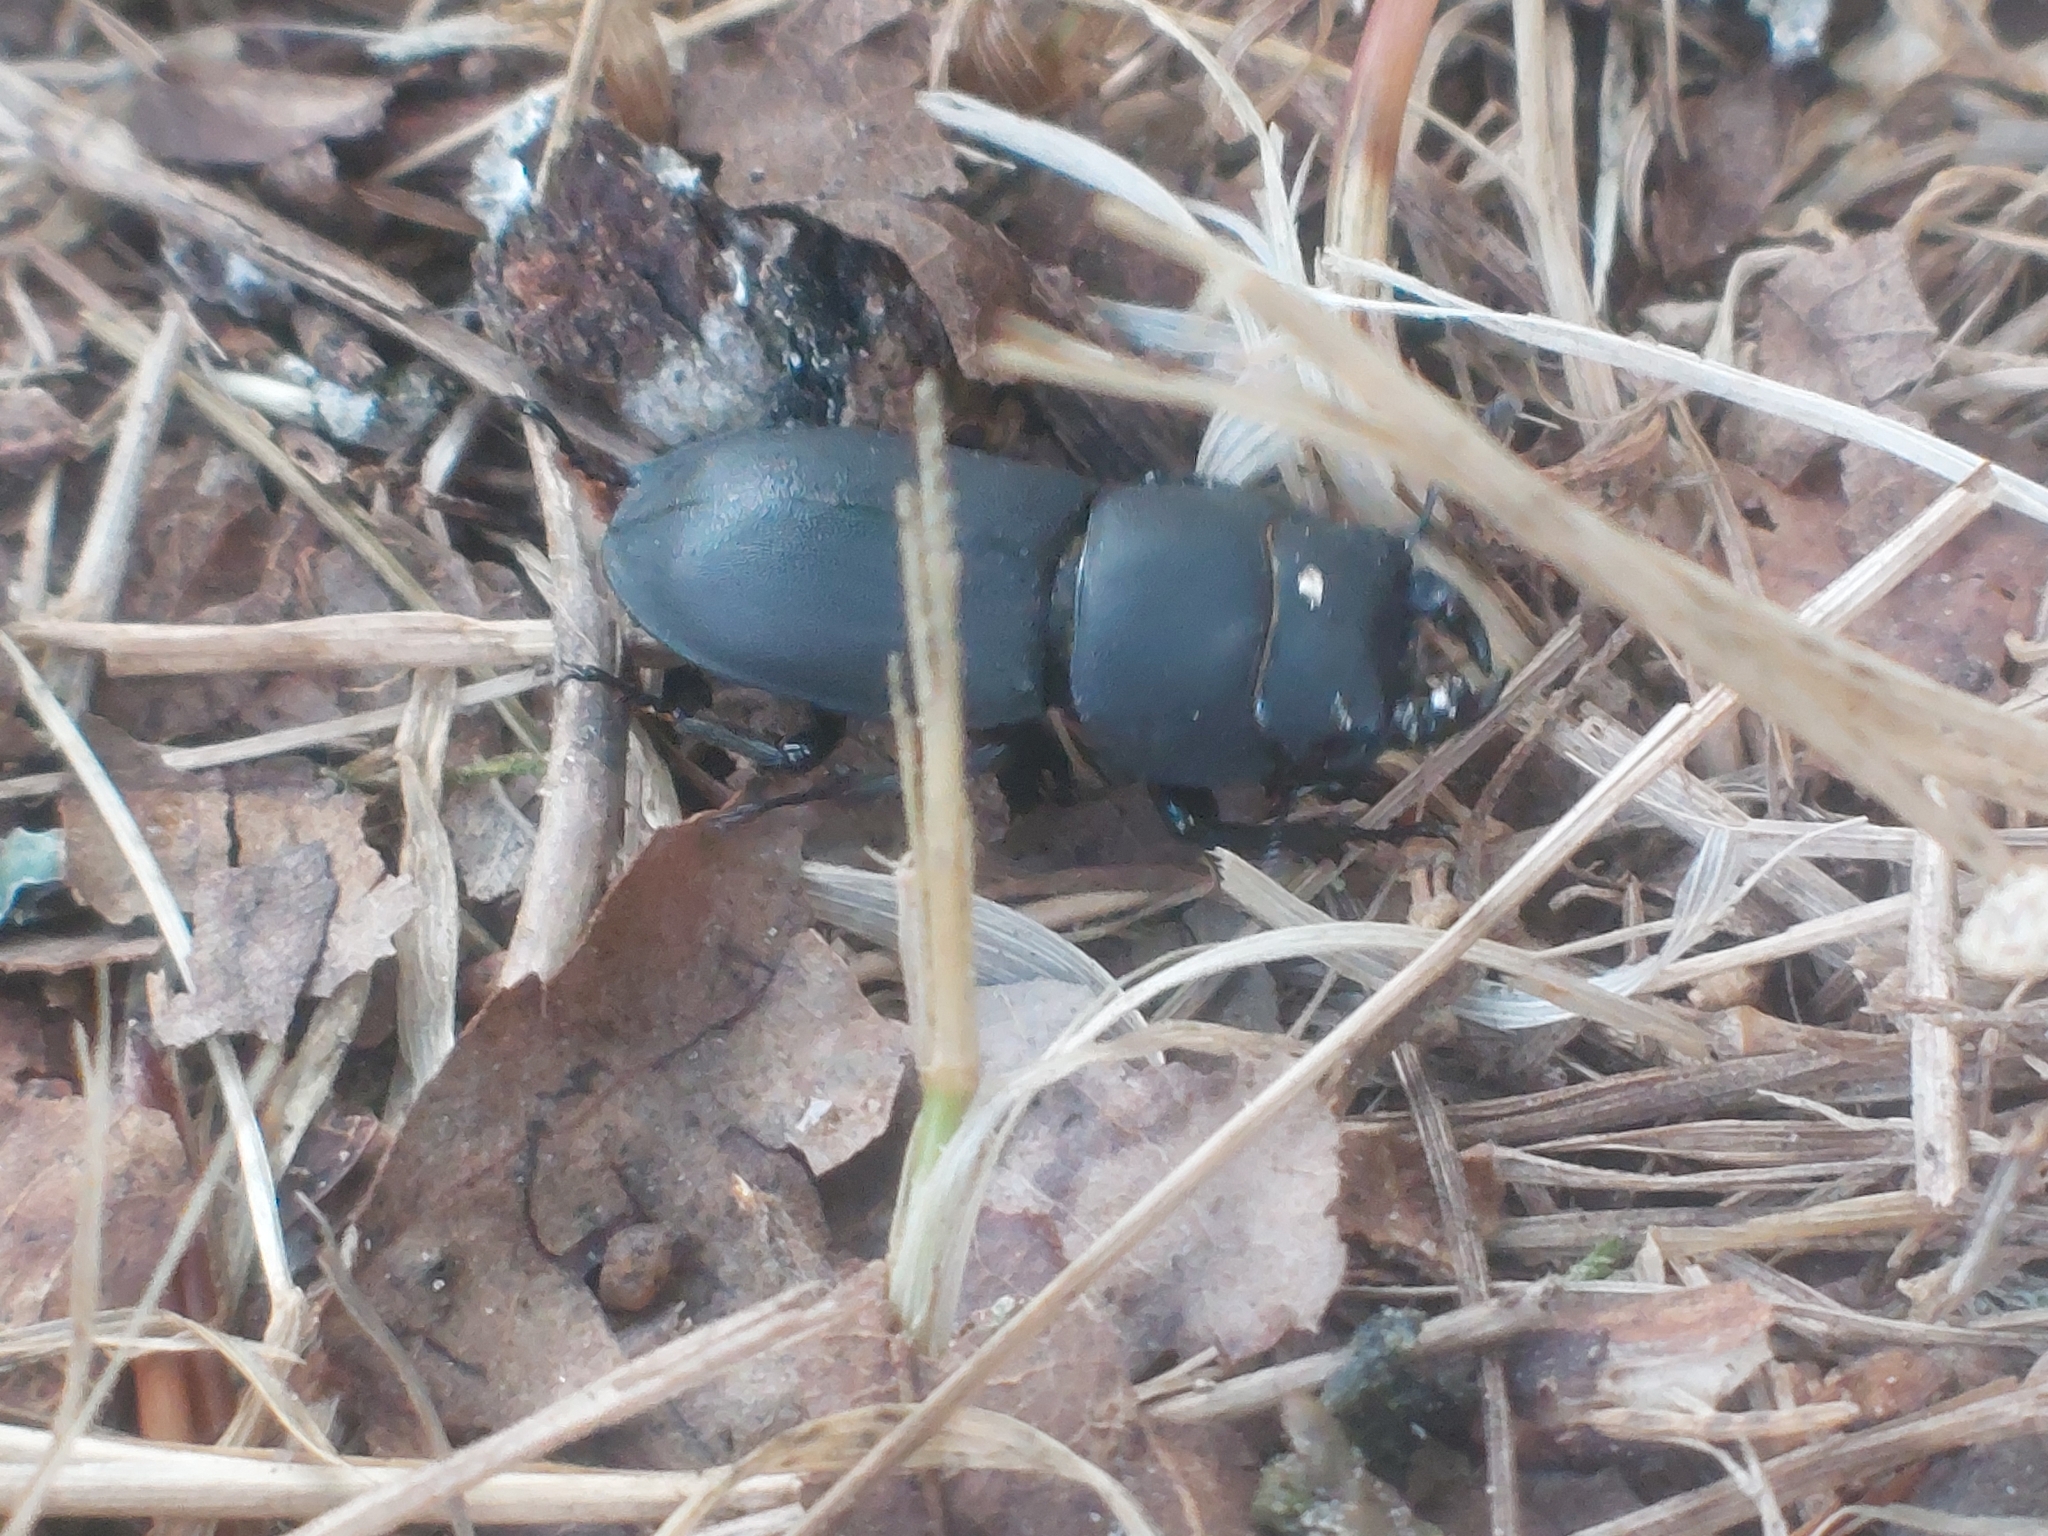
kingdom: Animalia
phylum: Arthropoda
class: Insecta
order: Coleoptera
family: Lucanidae
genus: Dorcus
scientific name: Dorcus parallelipipedus
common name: Lesser stag beetle
